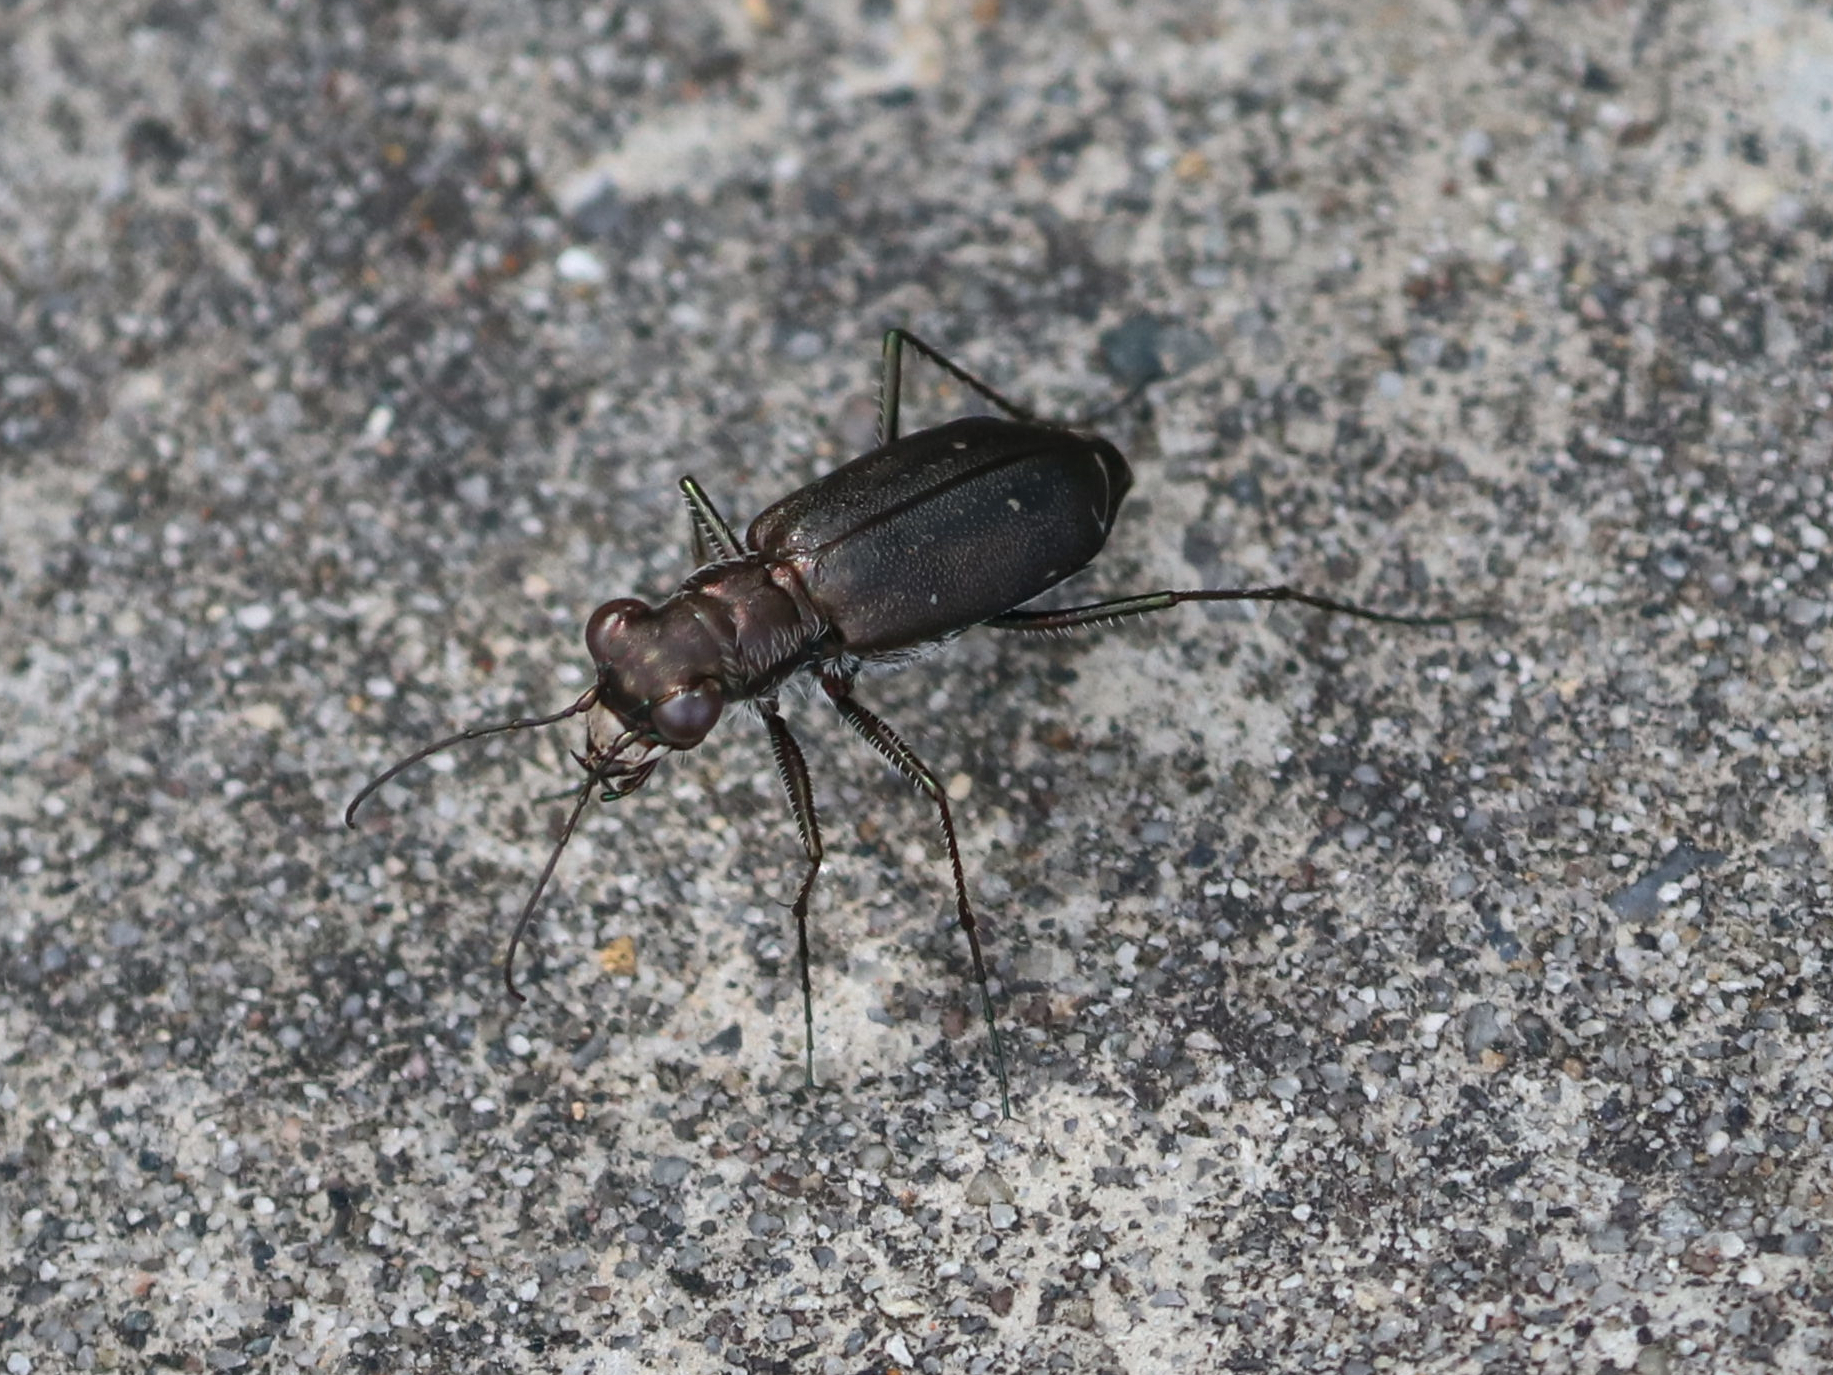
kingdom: Animalia
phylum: Arthropoda
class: Insecta
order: Coleoptera
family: Carabidae
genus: Cicindela
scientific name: Cicindela punctulata
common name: Punctured tiger beetle
